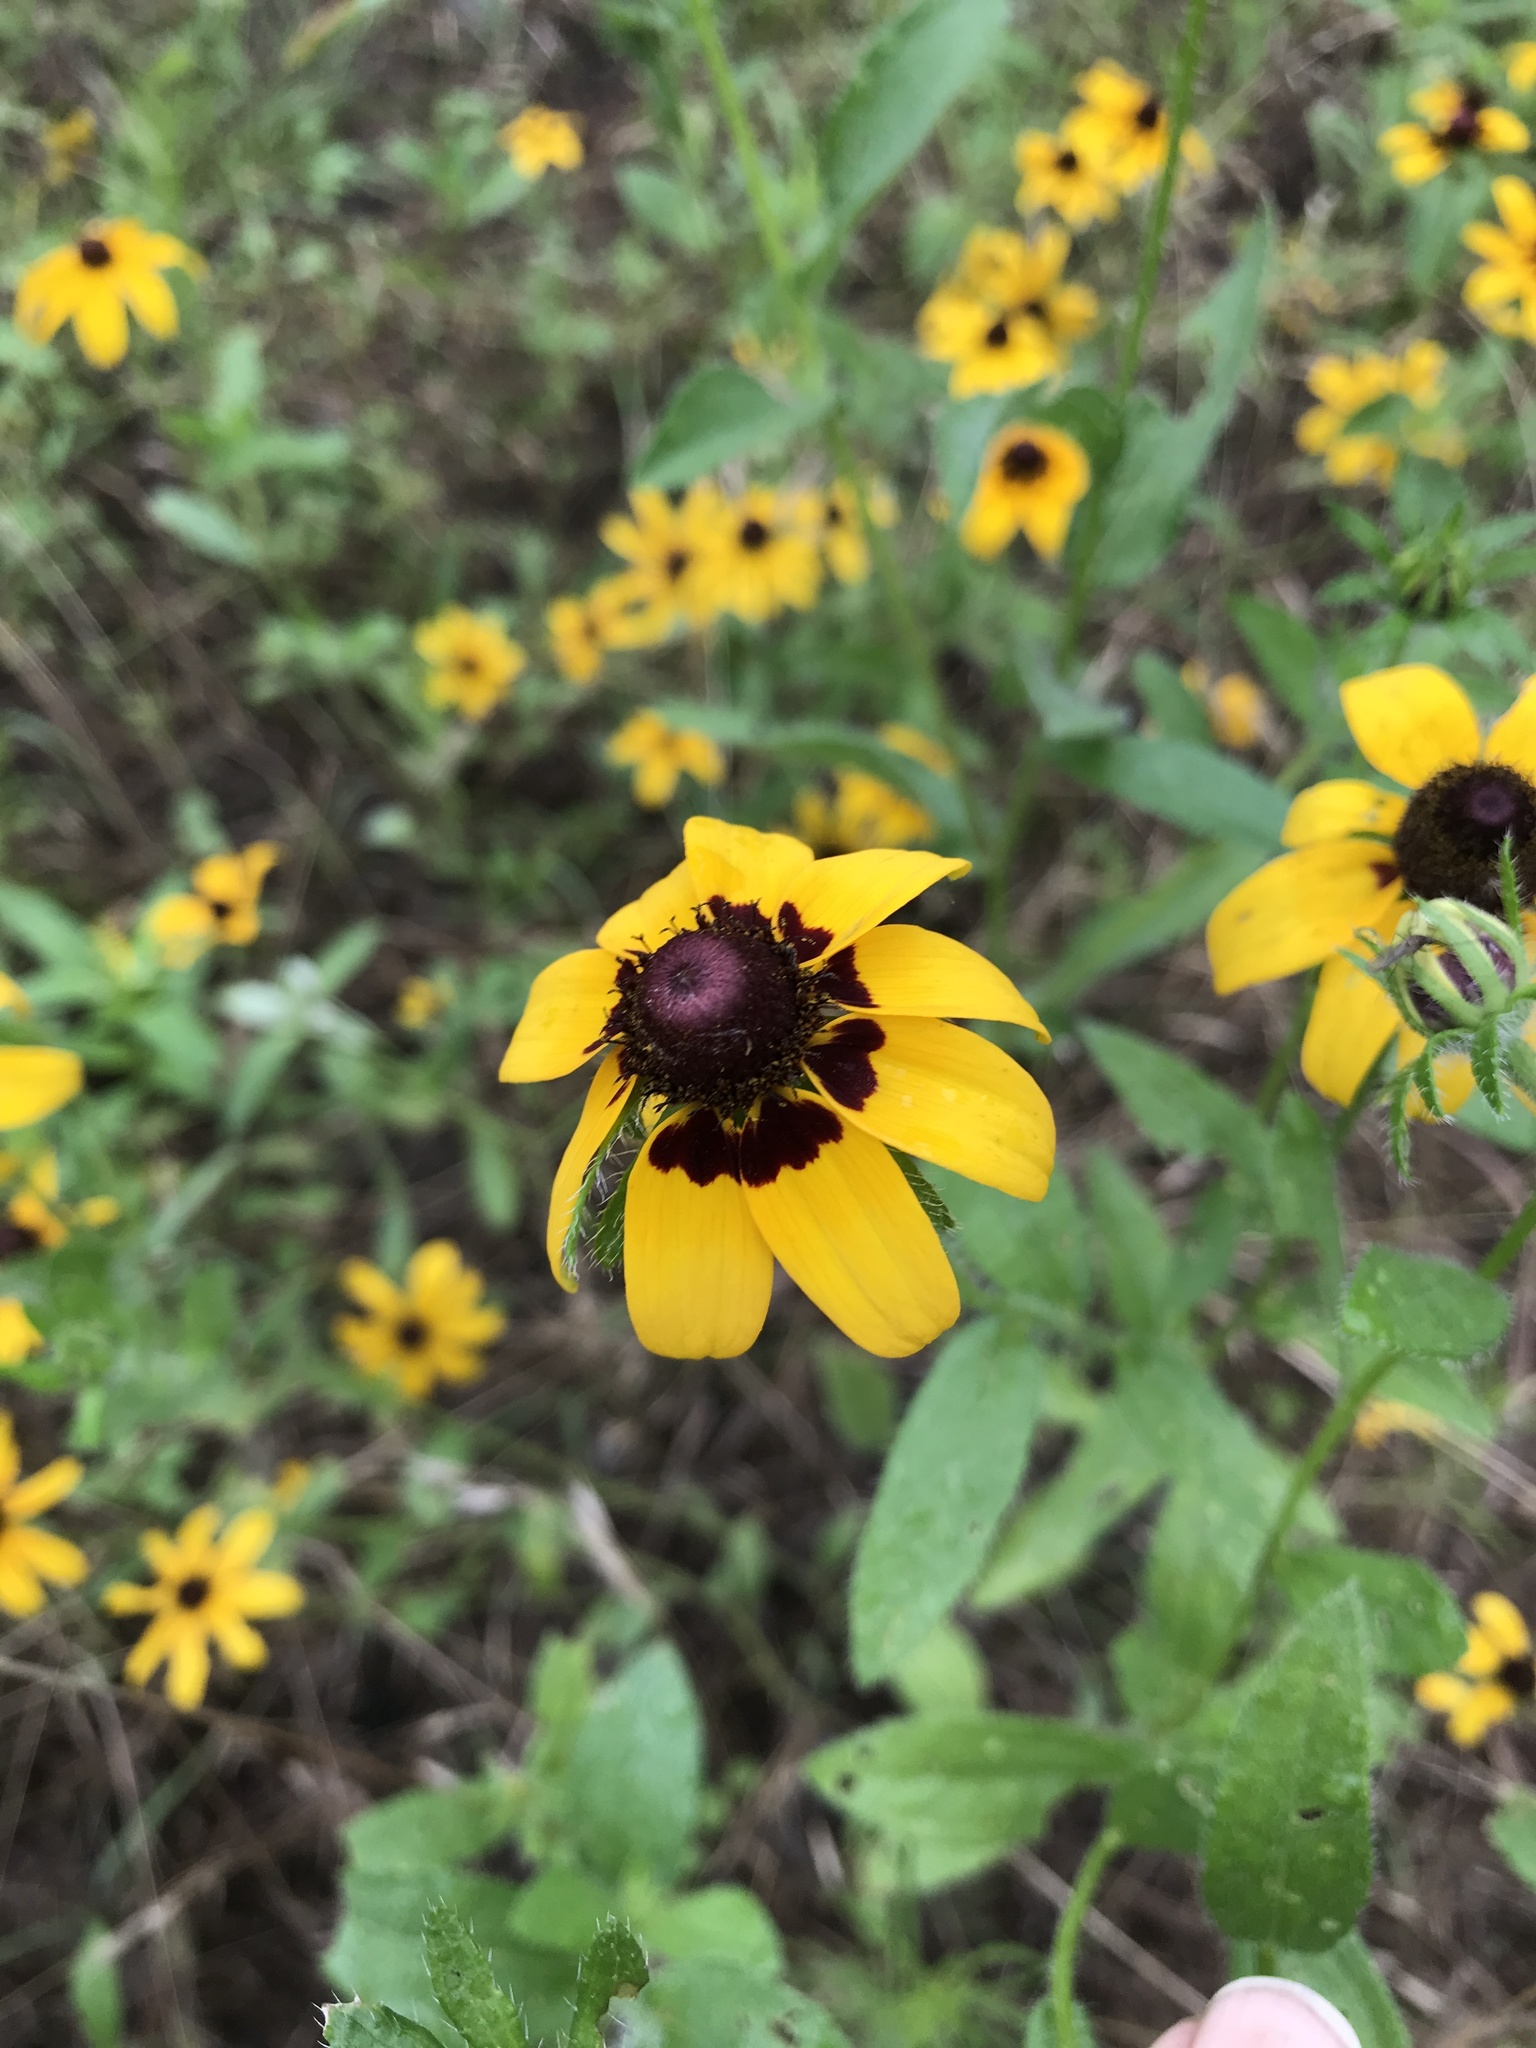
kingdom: Plantae
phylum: Tracheophyta
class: Magnoliopsida
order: Asterales
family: Asteraceae
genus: Rudbeckia
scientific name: Rudbeckia hirta
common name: Black-eyed-susan
